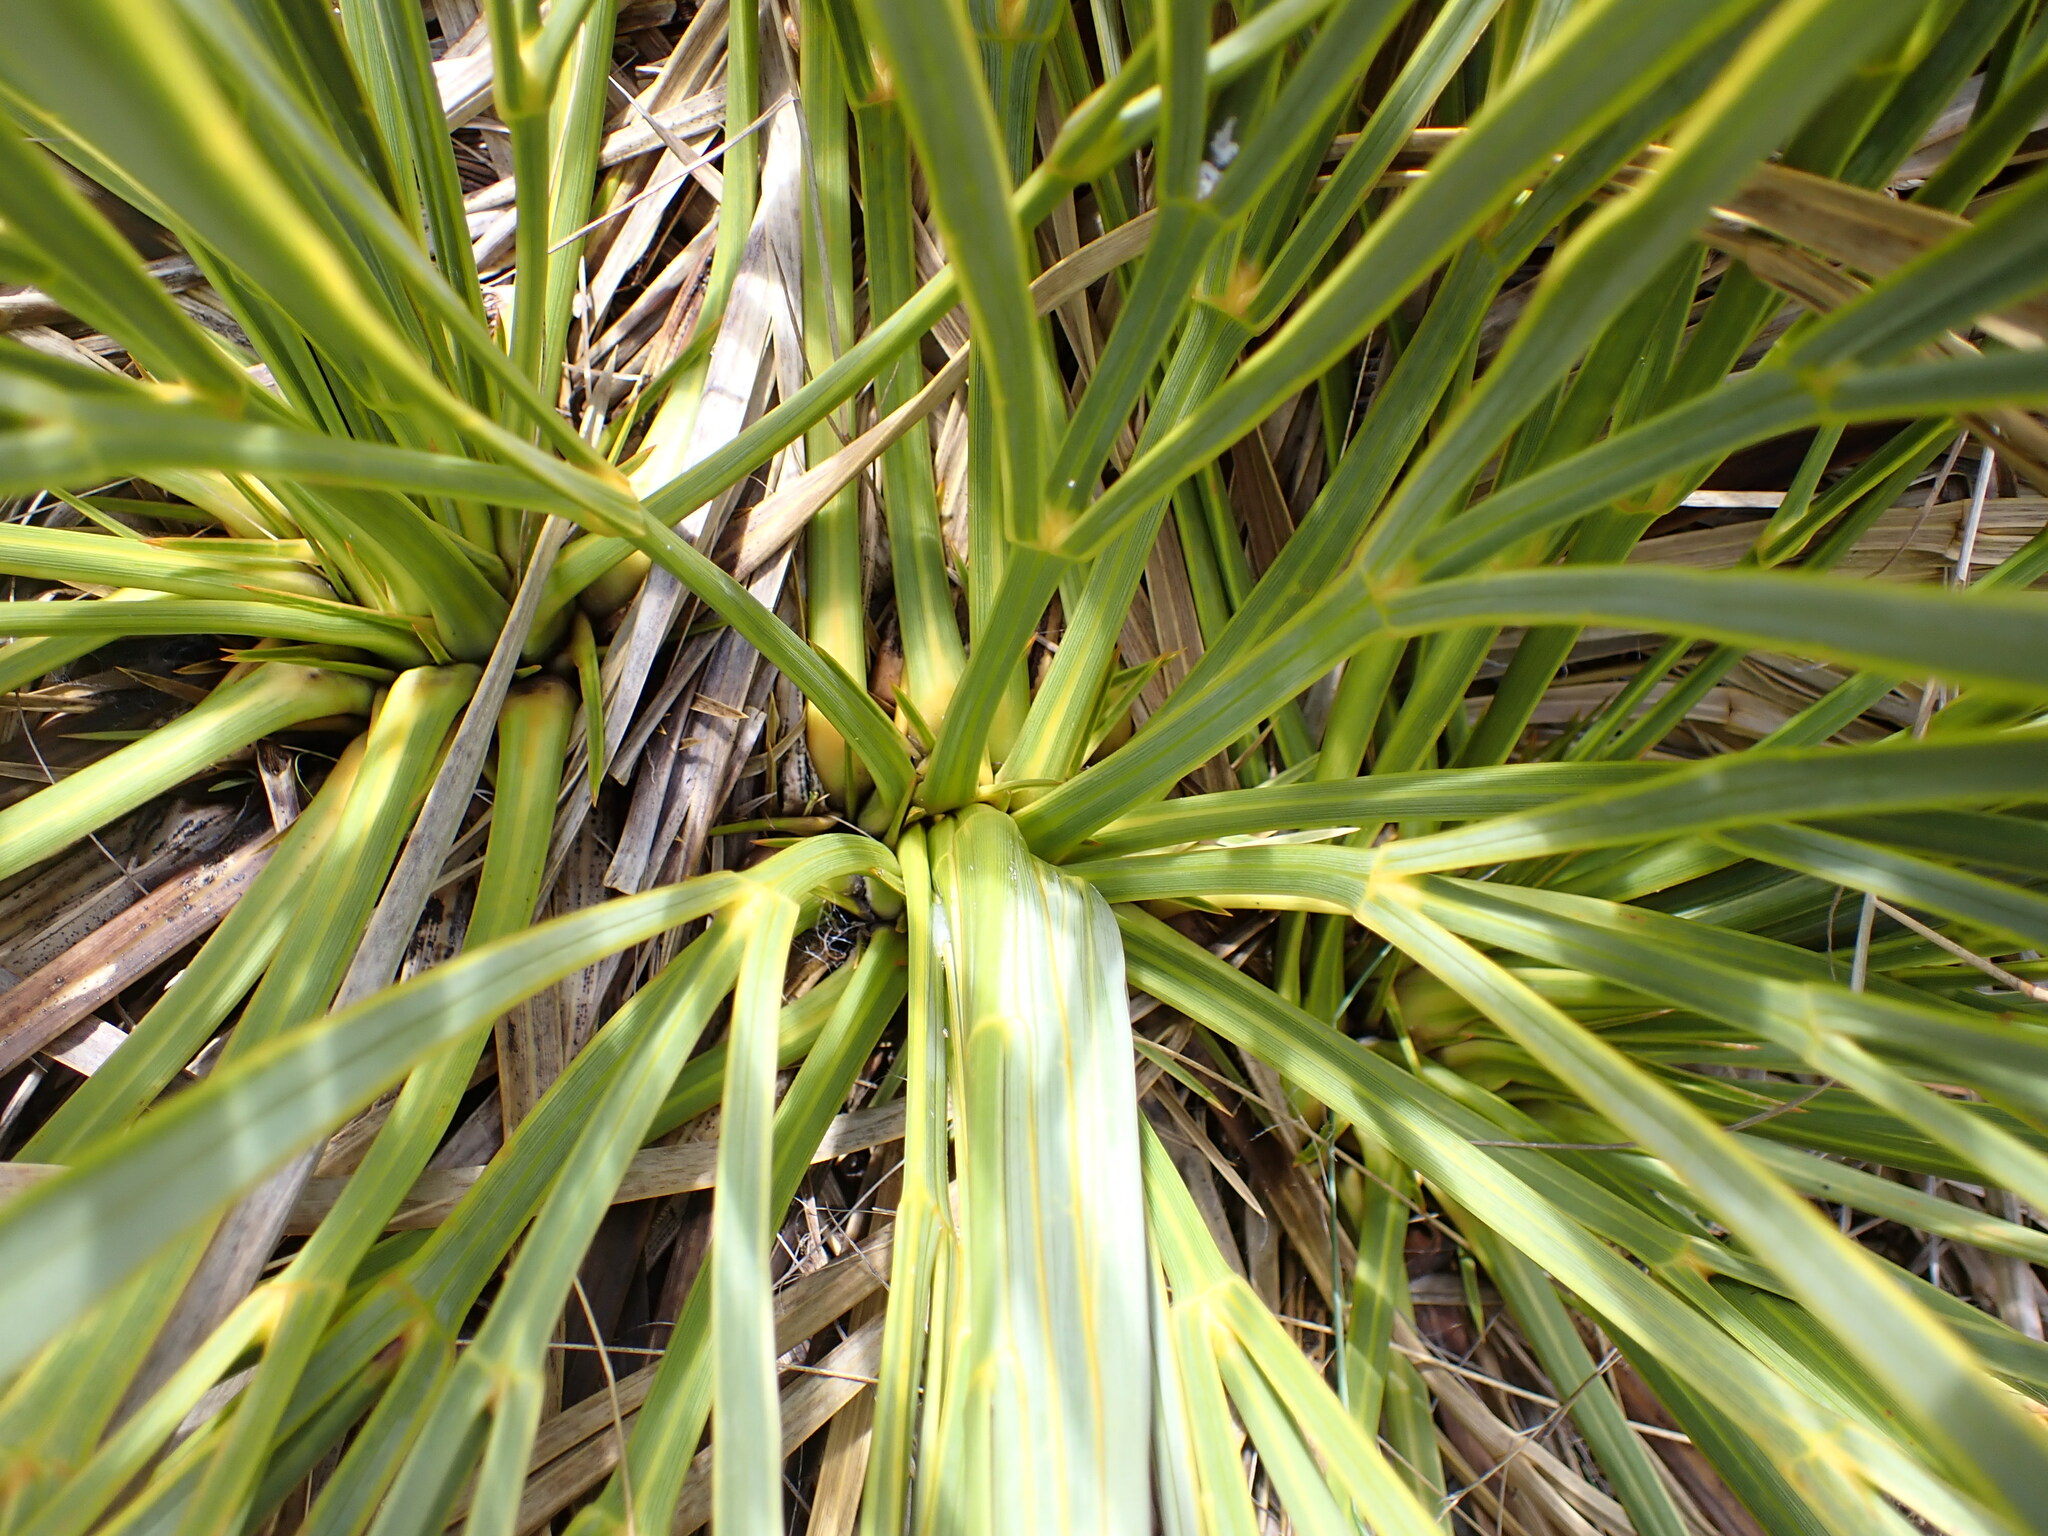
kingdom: Plantae
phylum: Tracheophyta
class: Magnoliopsida
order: Apiales
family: Apiaceae
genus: Aciphylla
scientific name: Aciphylla aurea
